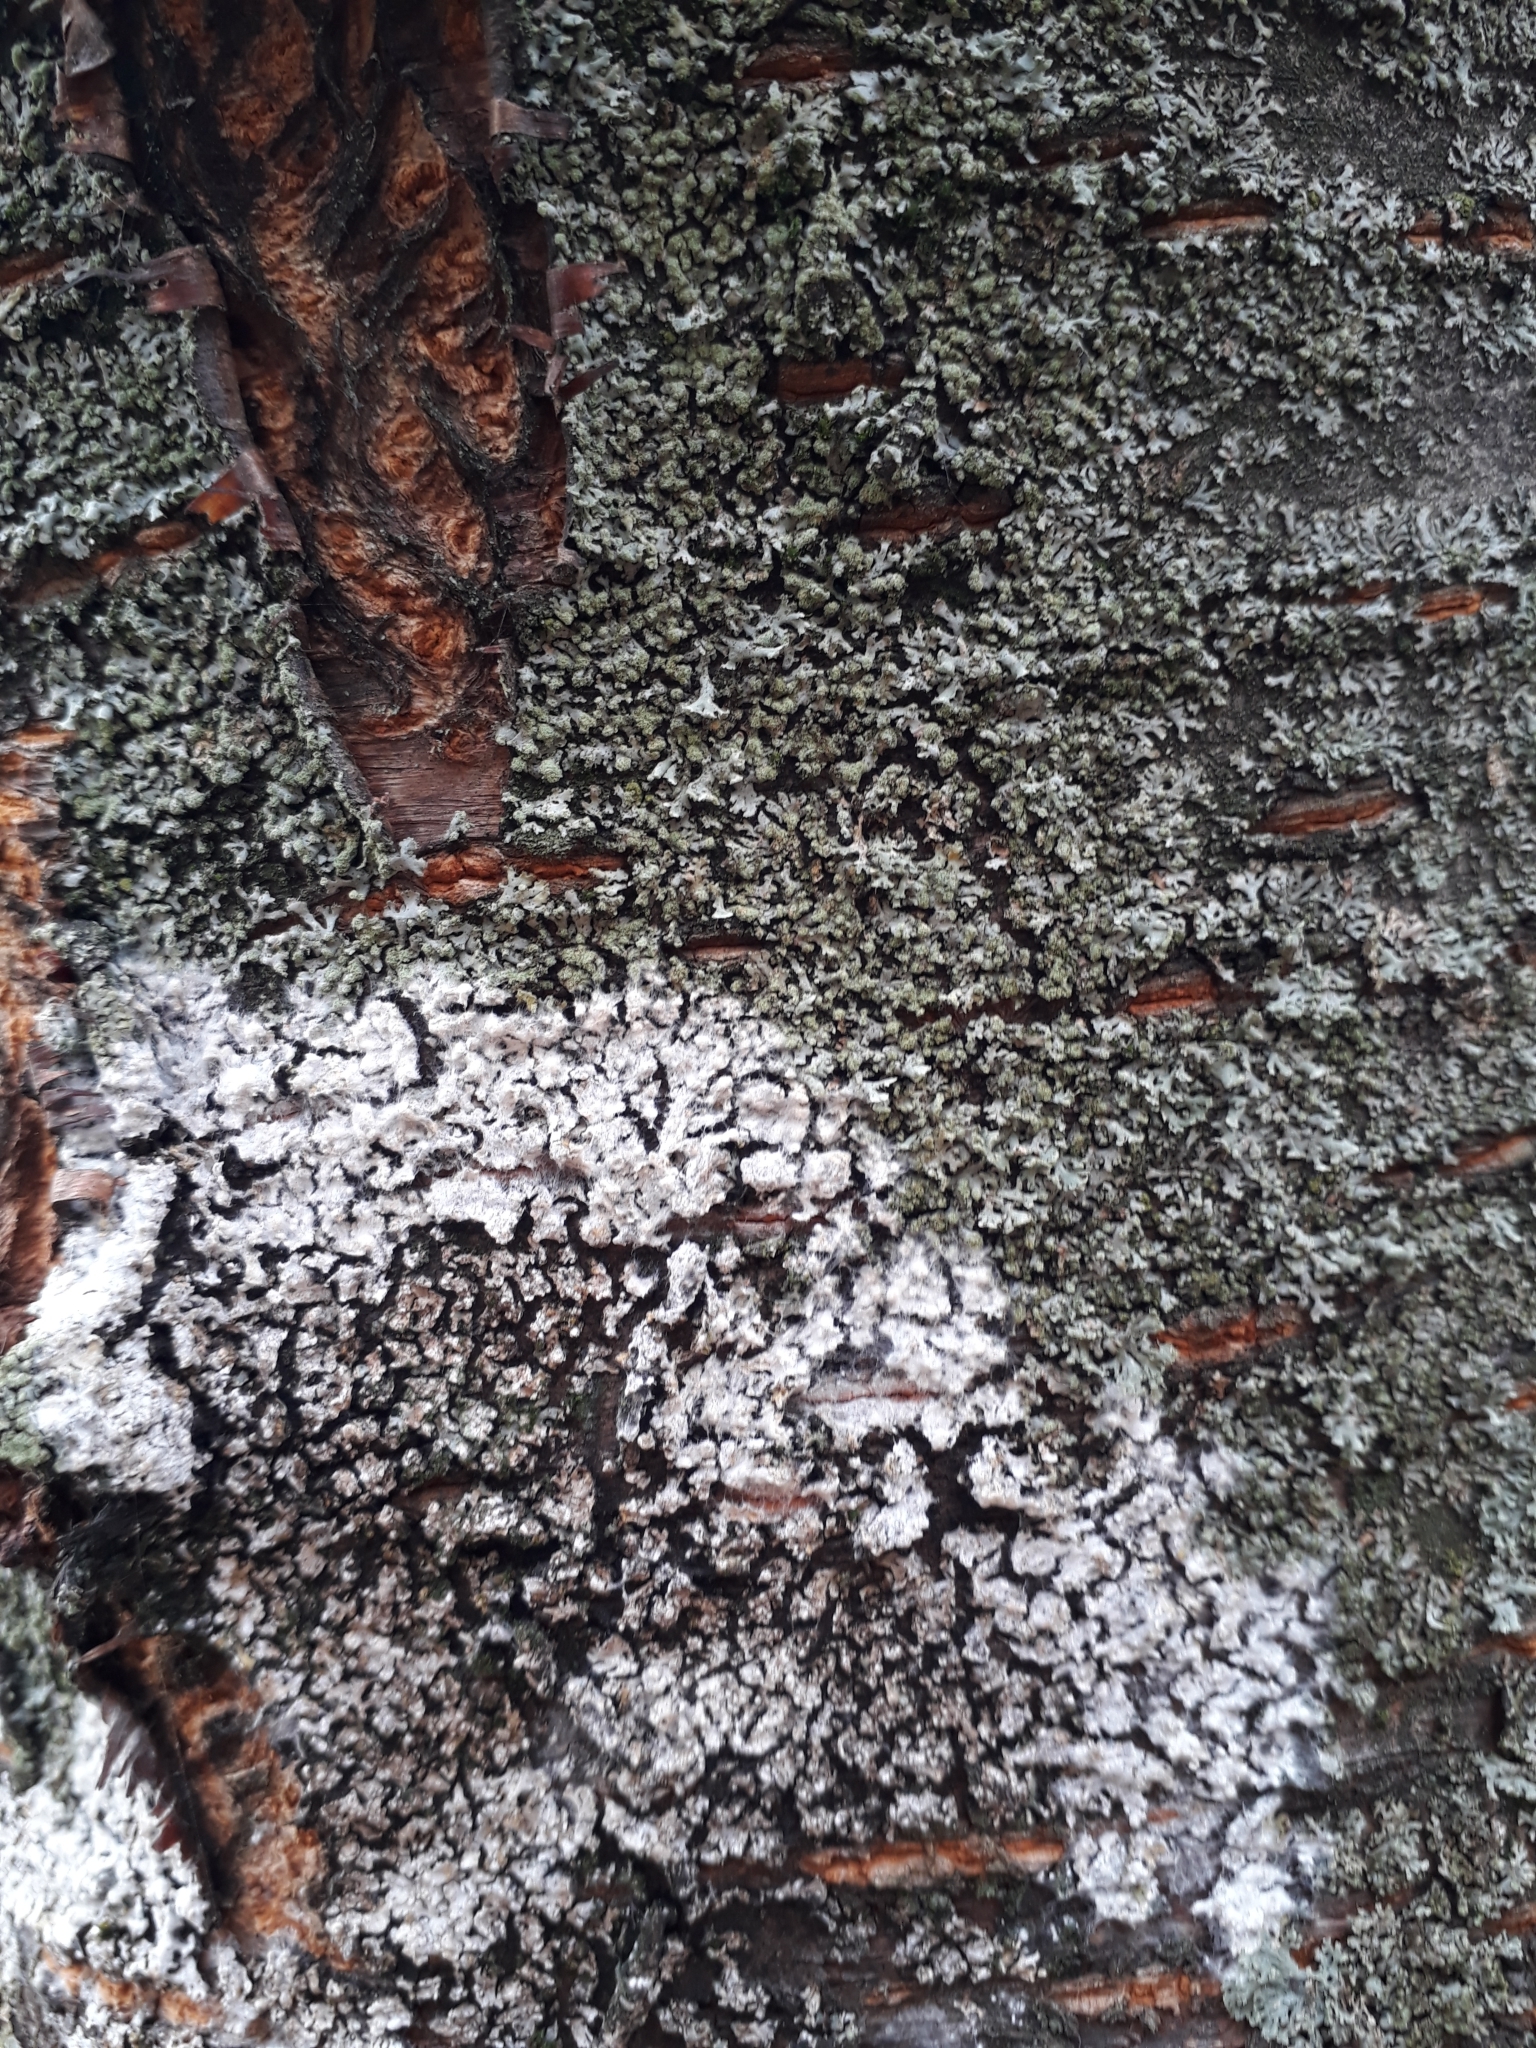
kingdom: Fungi
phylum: Basidiomycota
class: Agaricomycetes
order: Atheliales
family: Atheliaceae
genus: Athelia
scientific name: Athelia arachnoidea
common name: Candelabra duster
